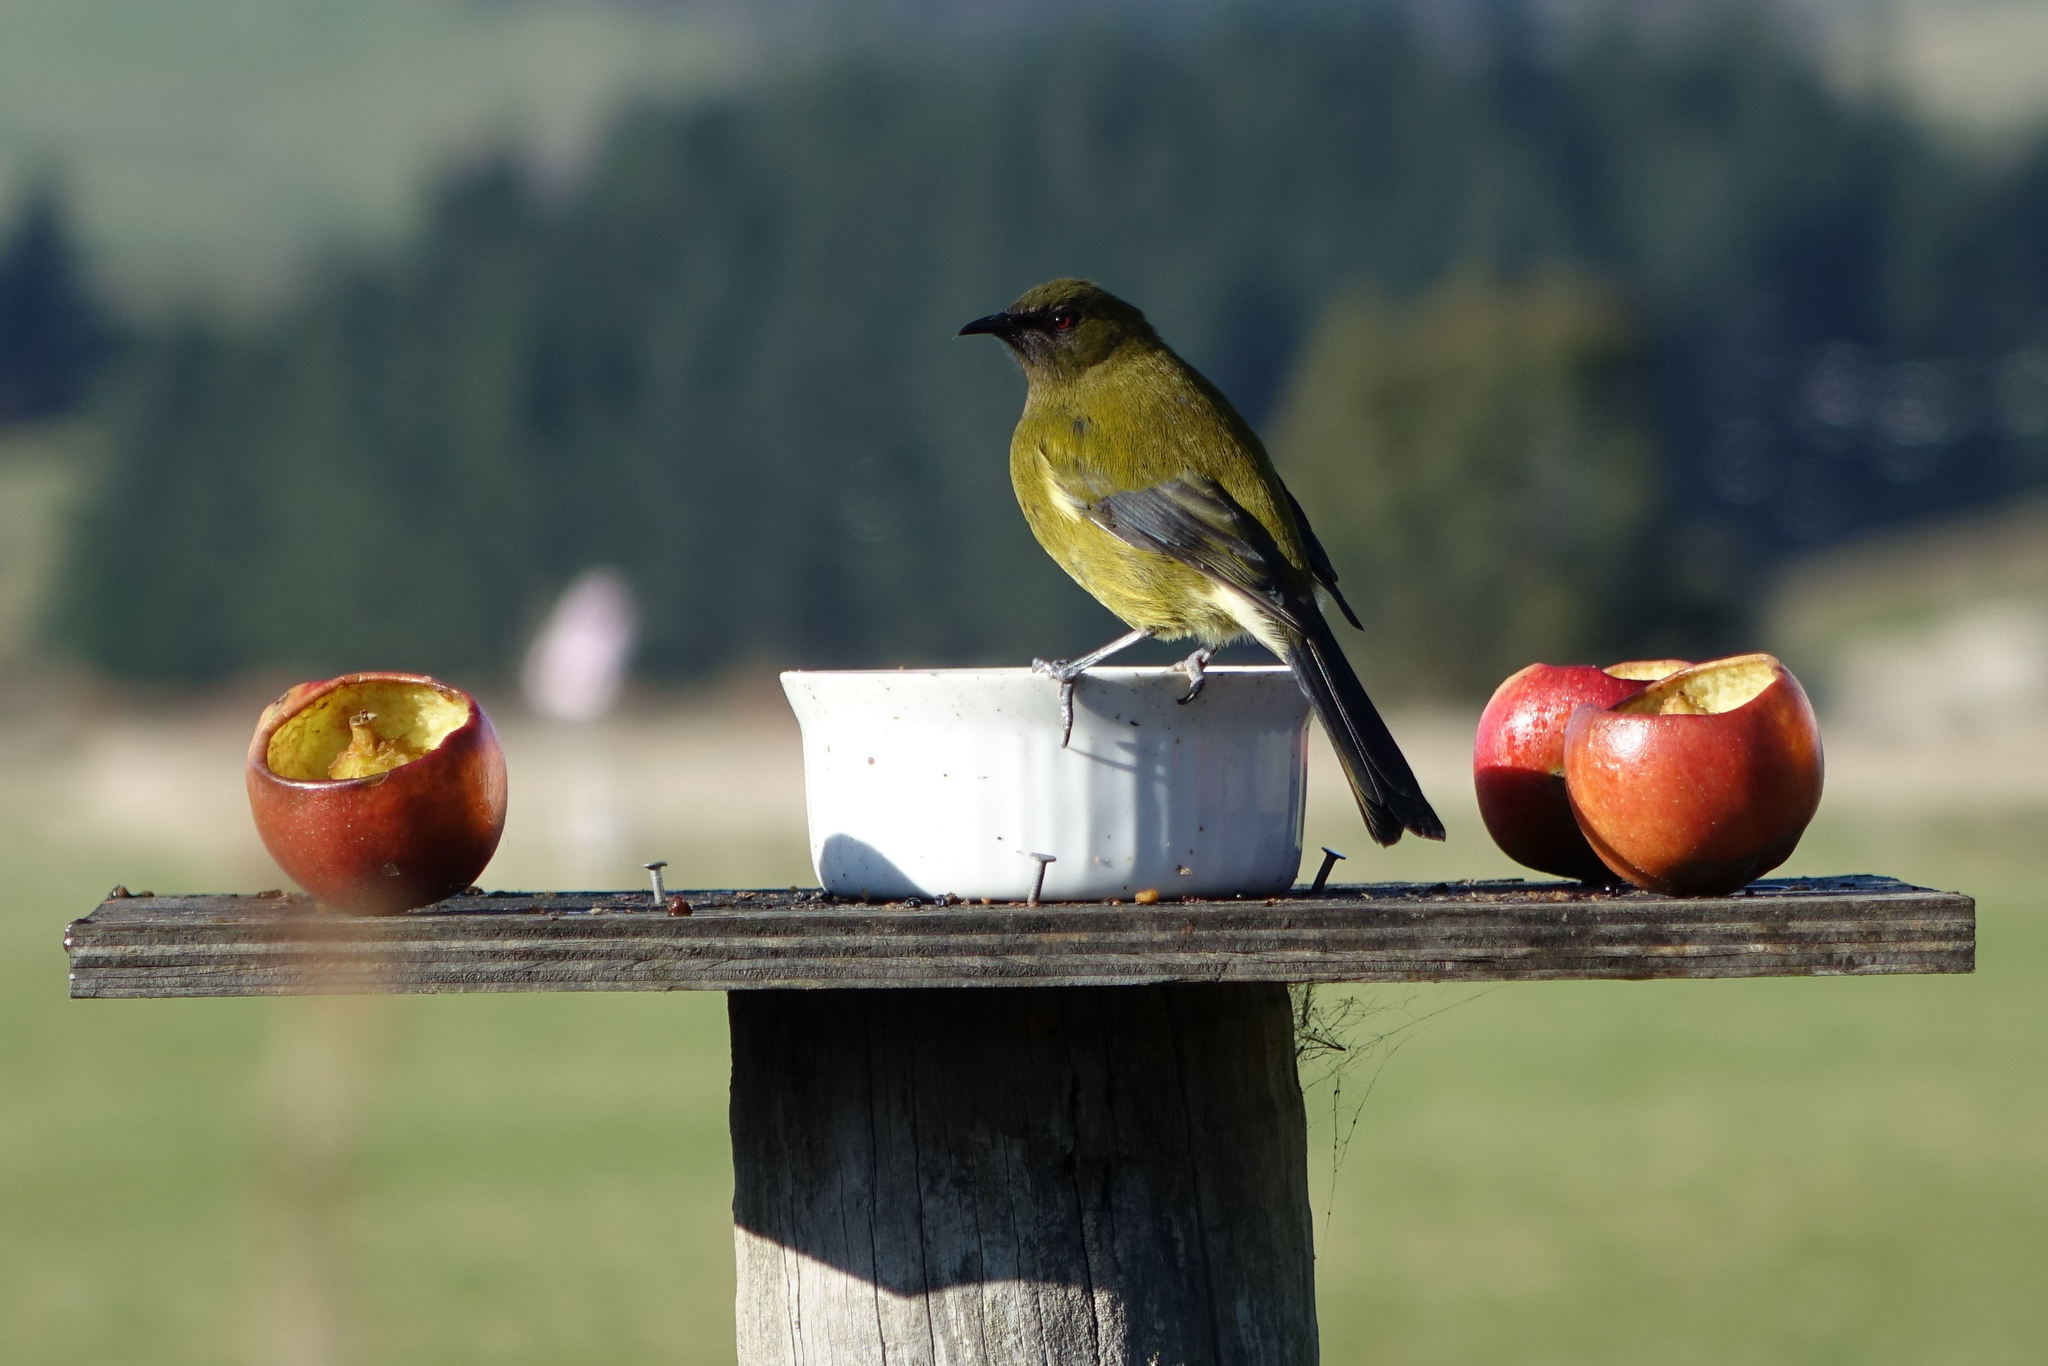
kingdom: Animalia
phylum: Chordata
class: Aves
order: Passeriformes
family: Meliphagidae
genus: Anthornis
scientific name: Anthornis melanura
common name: New zealand bellbird
